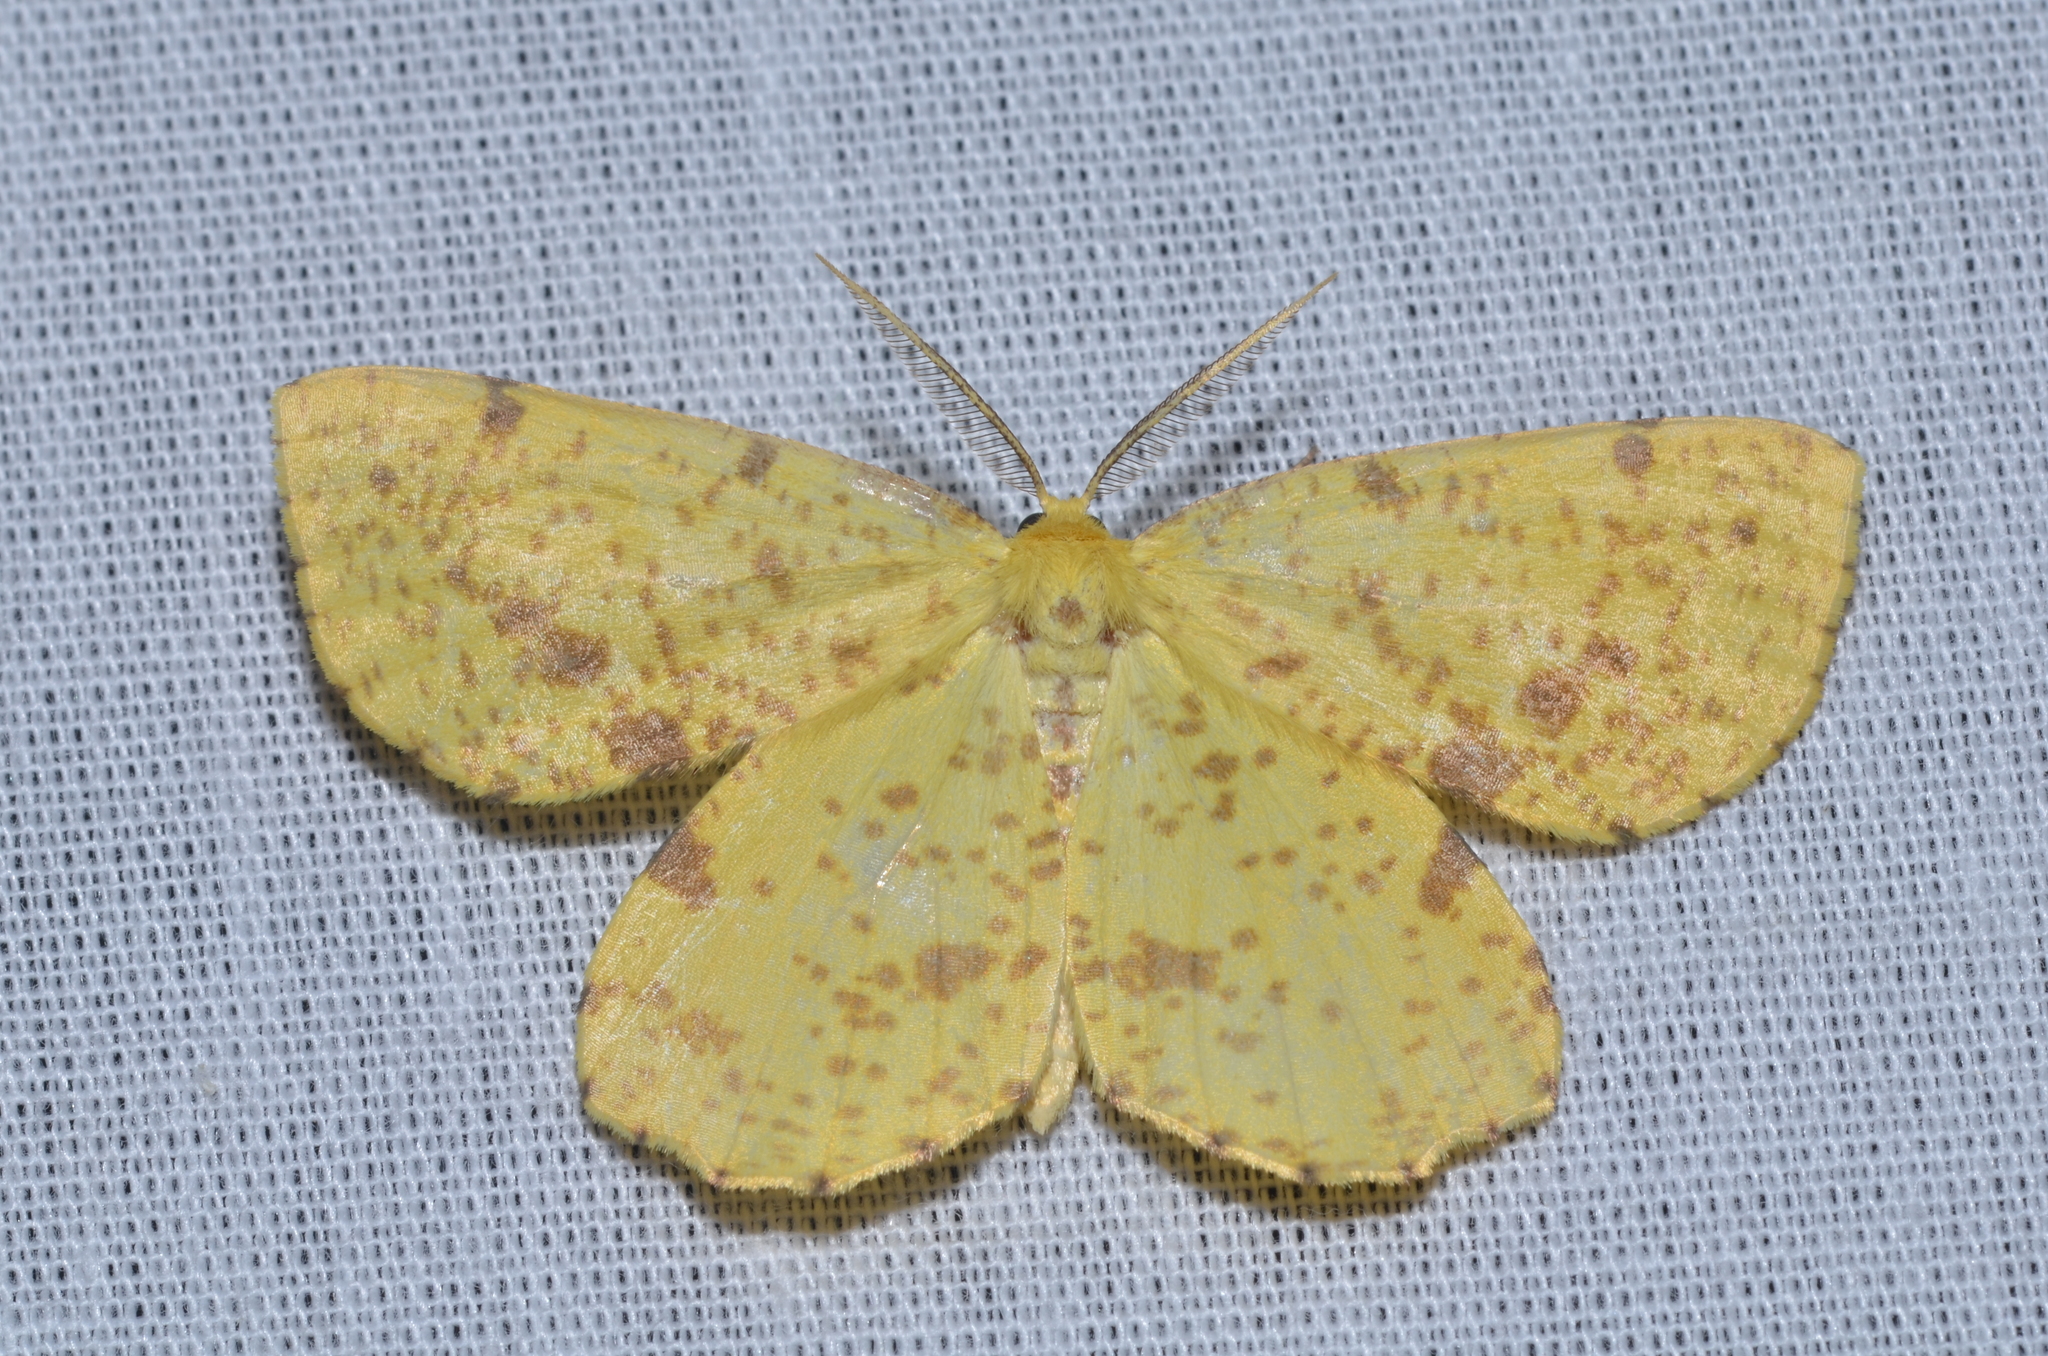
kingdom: Animalia
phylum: Arthropoda
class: Insecta
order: Lepidoptera
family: Geometridae
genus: Xanthotype
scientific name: Xanthotype
